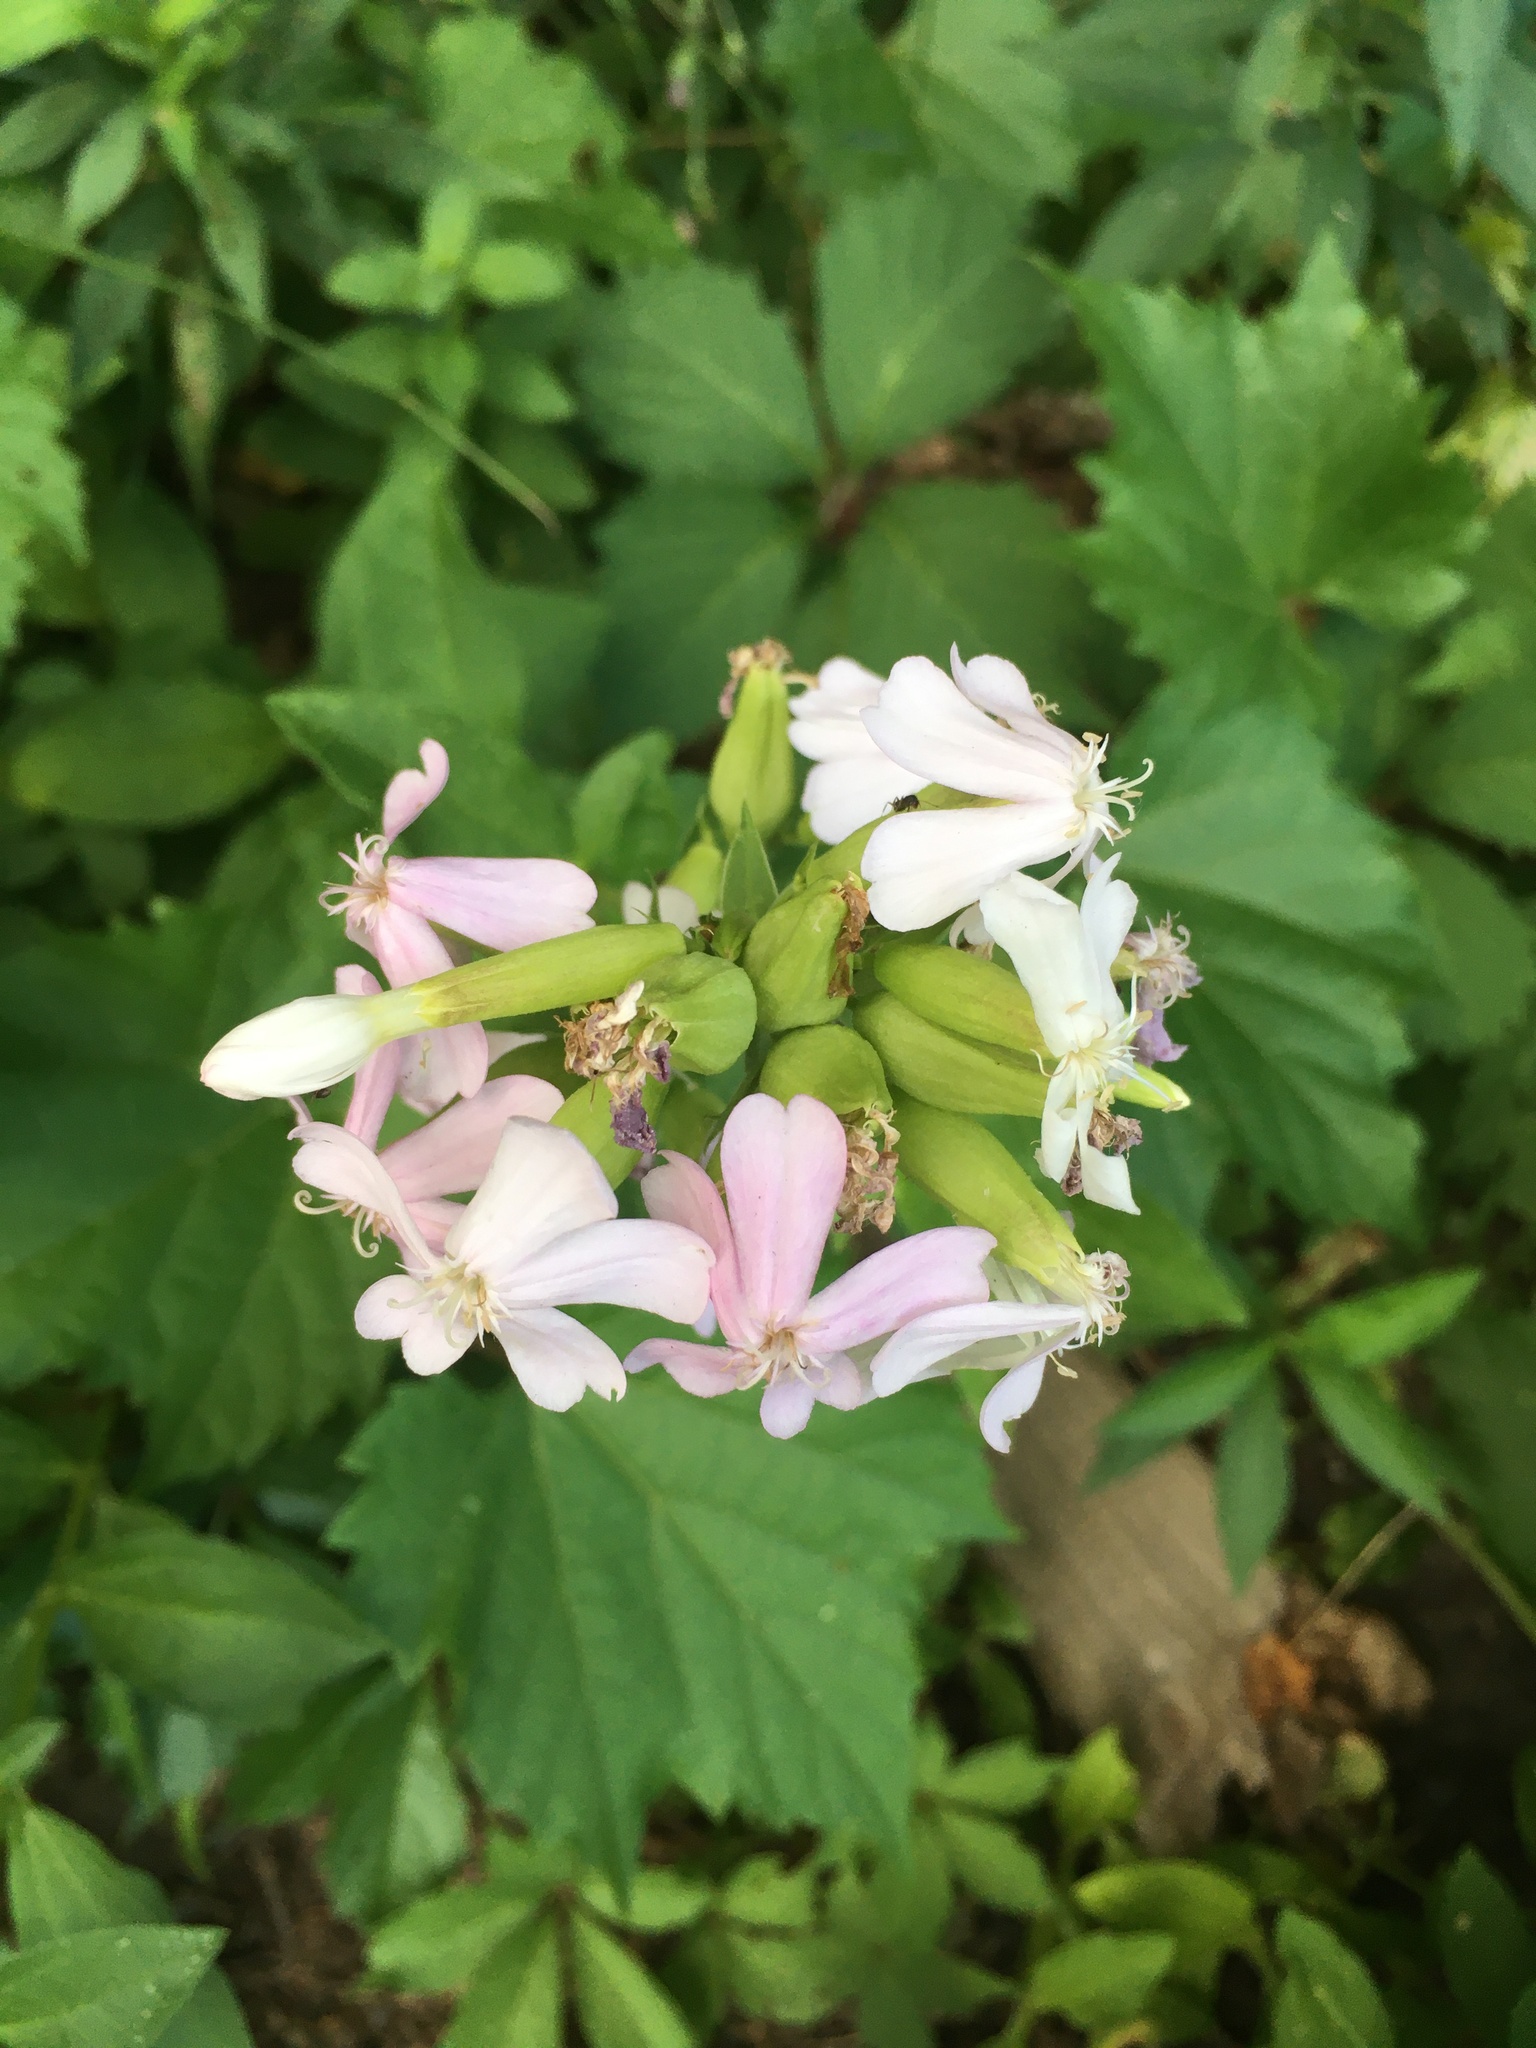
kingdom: Plantae
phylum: Tracheophyta
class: Magnoliopsida
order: Caryophyllales
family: Caryophyllaceae
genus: Saponaria
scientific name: Saponaria officinalis
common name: Soapwort
